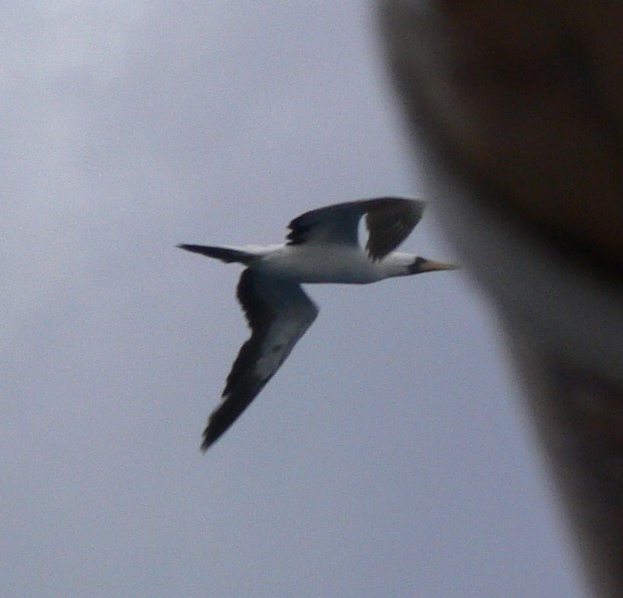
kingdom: Animalia
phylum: Chordata
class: Aves
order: Suliformes
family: Sulidae
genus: Sula
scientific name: Sula dactylatra
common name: Masked booby
